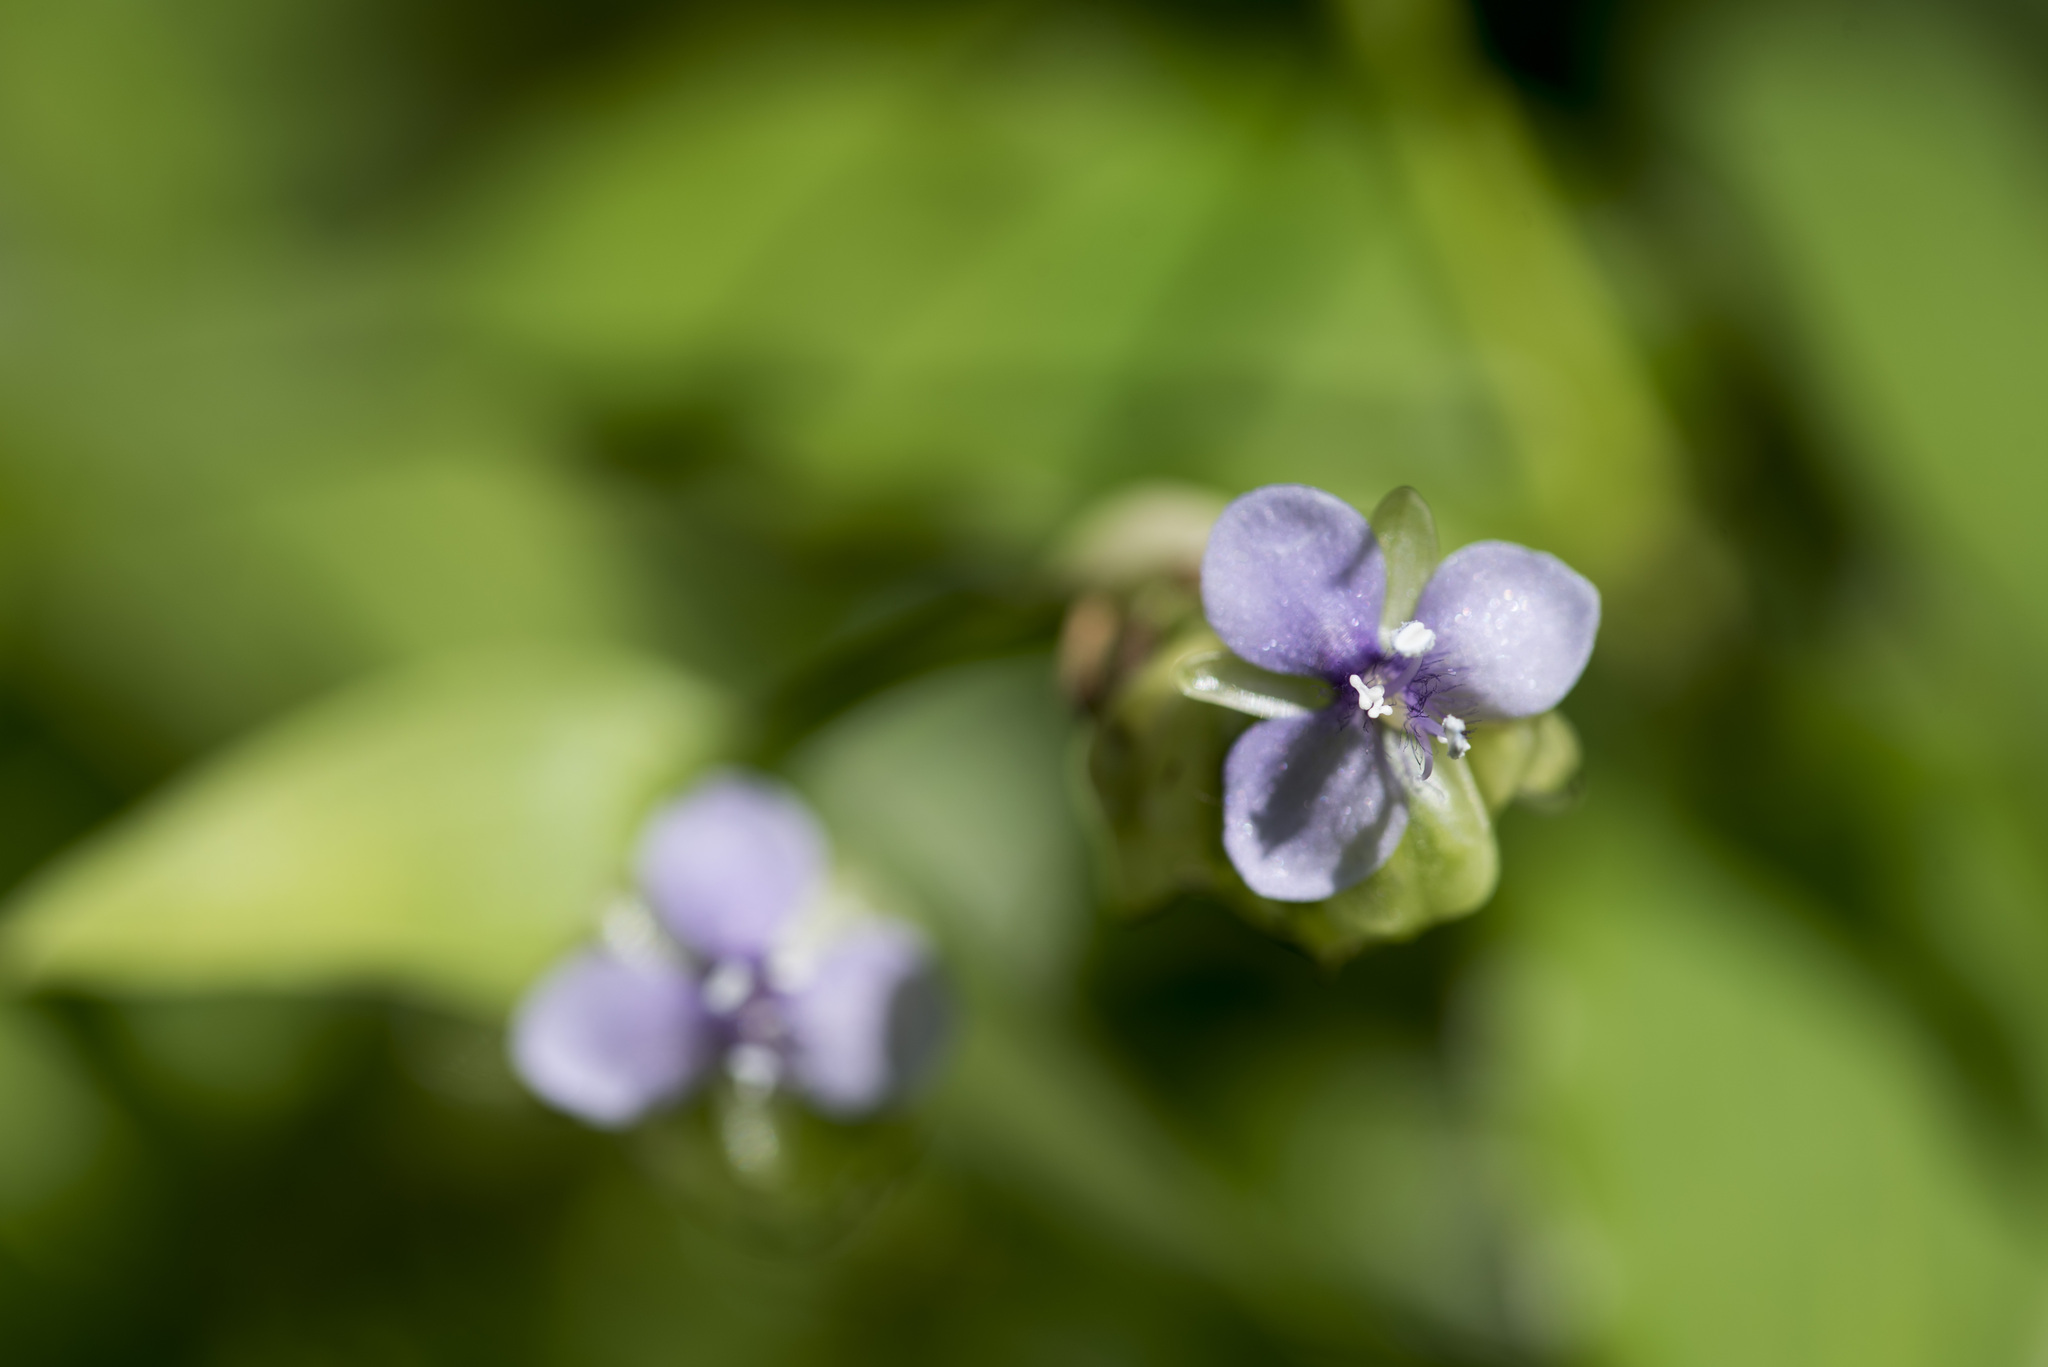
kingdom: Plantae
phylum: Tracheophyta
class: Liliopsida
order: Commelinales
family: Commelinaceae
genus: Murdannia
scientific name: Murdannia bracteata
